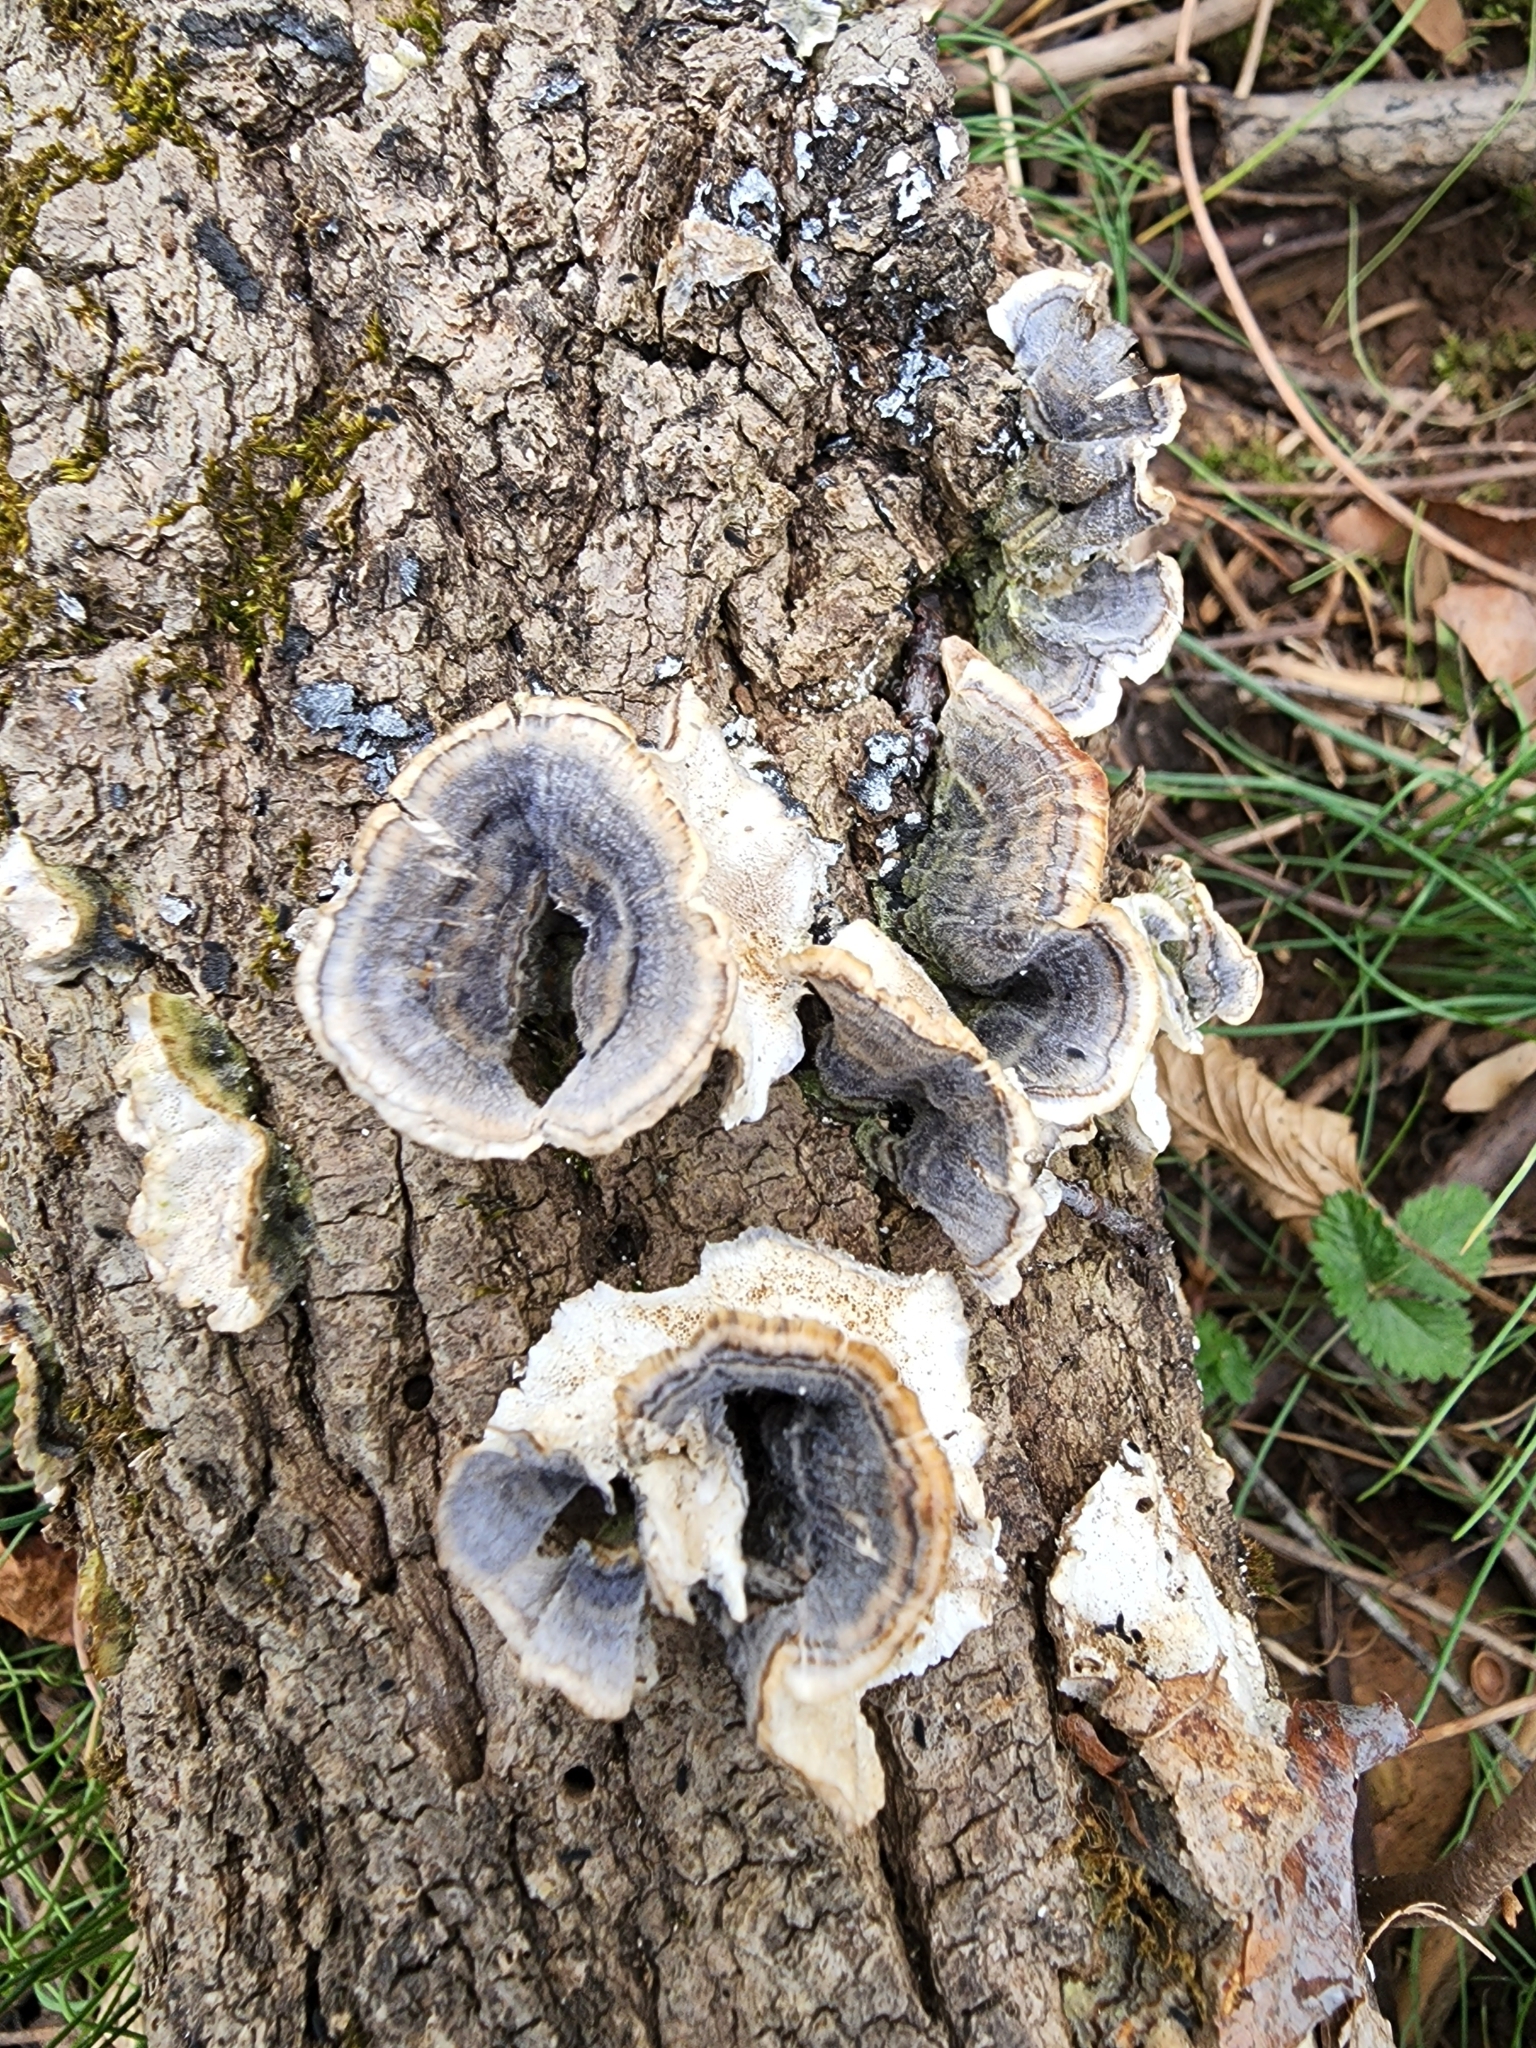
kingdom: Fungi
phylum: Basidiomycota
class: Agaricomycetes
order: Polyporales
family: Polyporaceae
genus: Trametes
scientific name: Trametes versicolor
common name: Turkeytail
